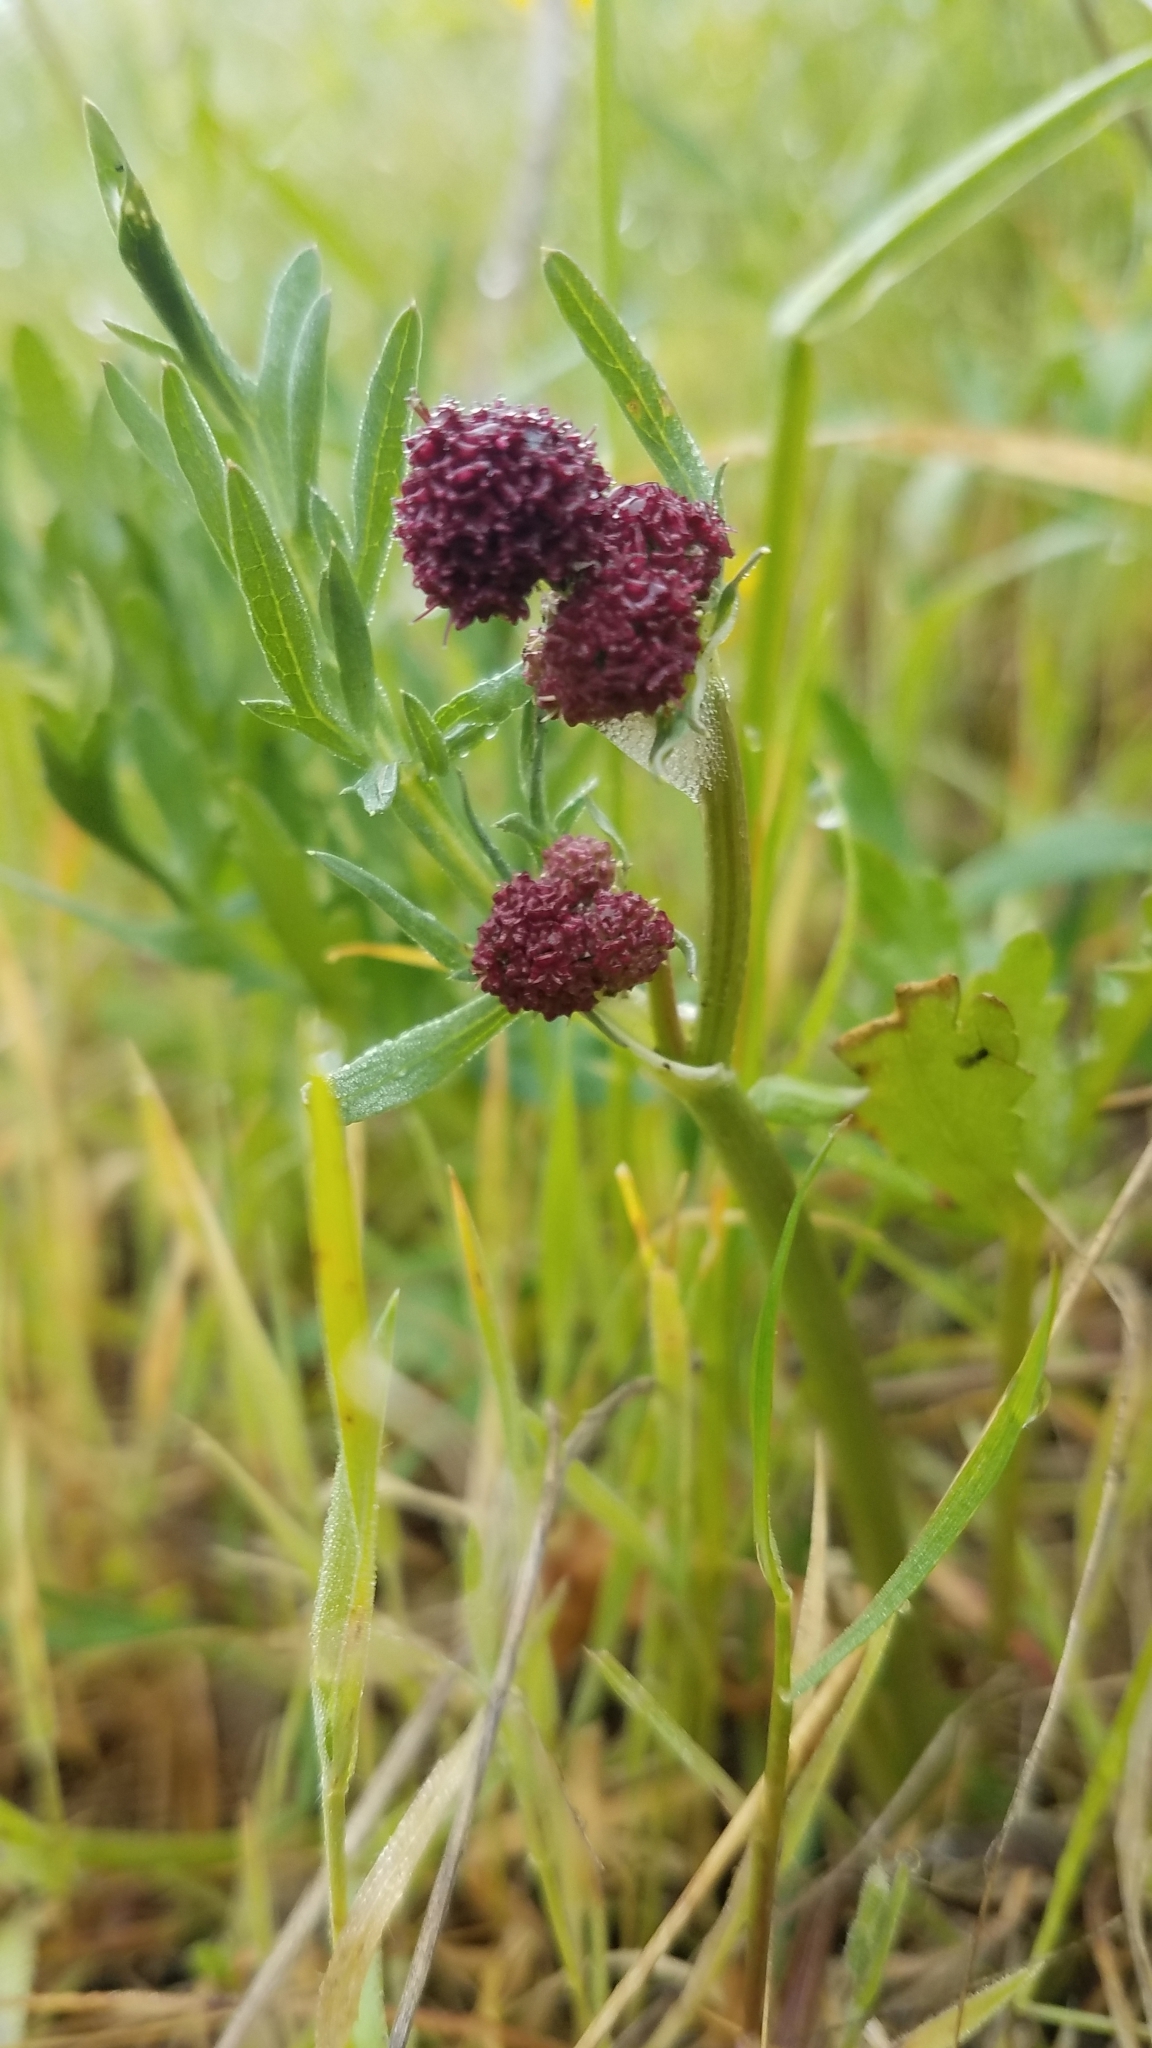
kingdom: Plantae
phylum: Tracheophyta
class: Magnoliopsida
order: Apiales
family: Apiaceae
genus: Sanicula
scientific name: Sanicula bipinnatifida
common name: Shoe-buttons
